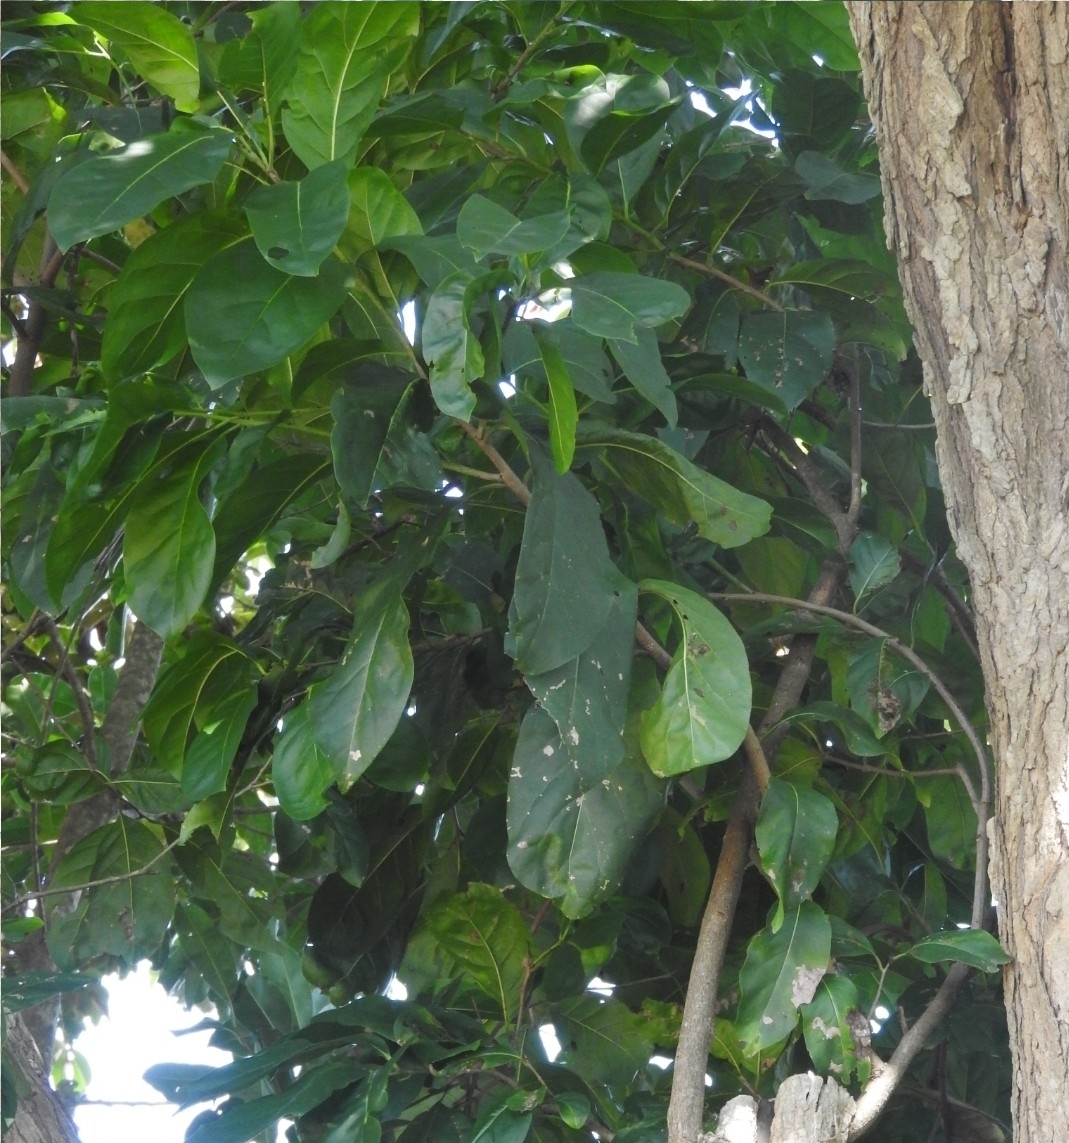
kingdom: Plantae
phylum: Tracheophyta
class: Magnoliopsida
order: Rosales
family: Moraceae
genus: Brosimum
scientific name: Brosimum alicastrum
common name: Breadnut
